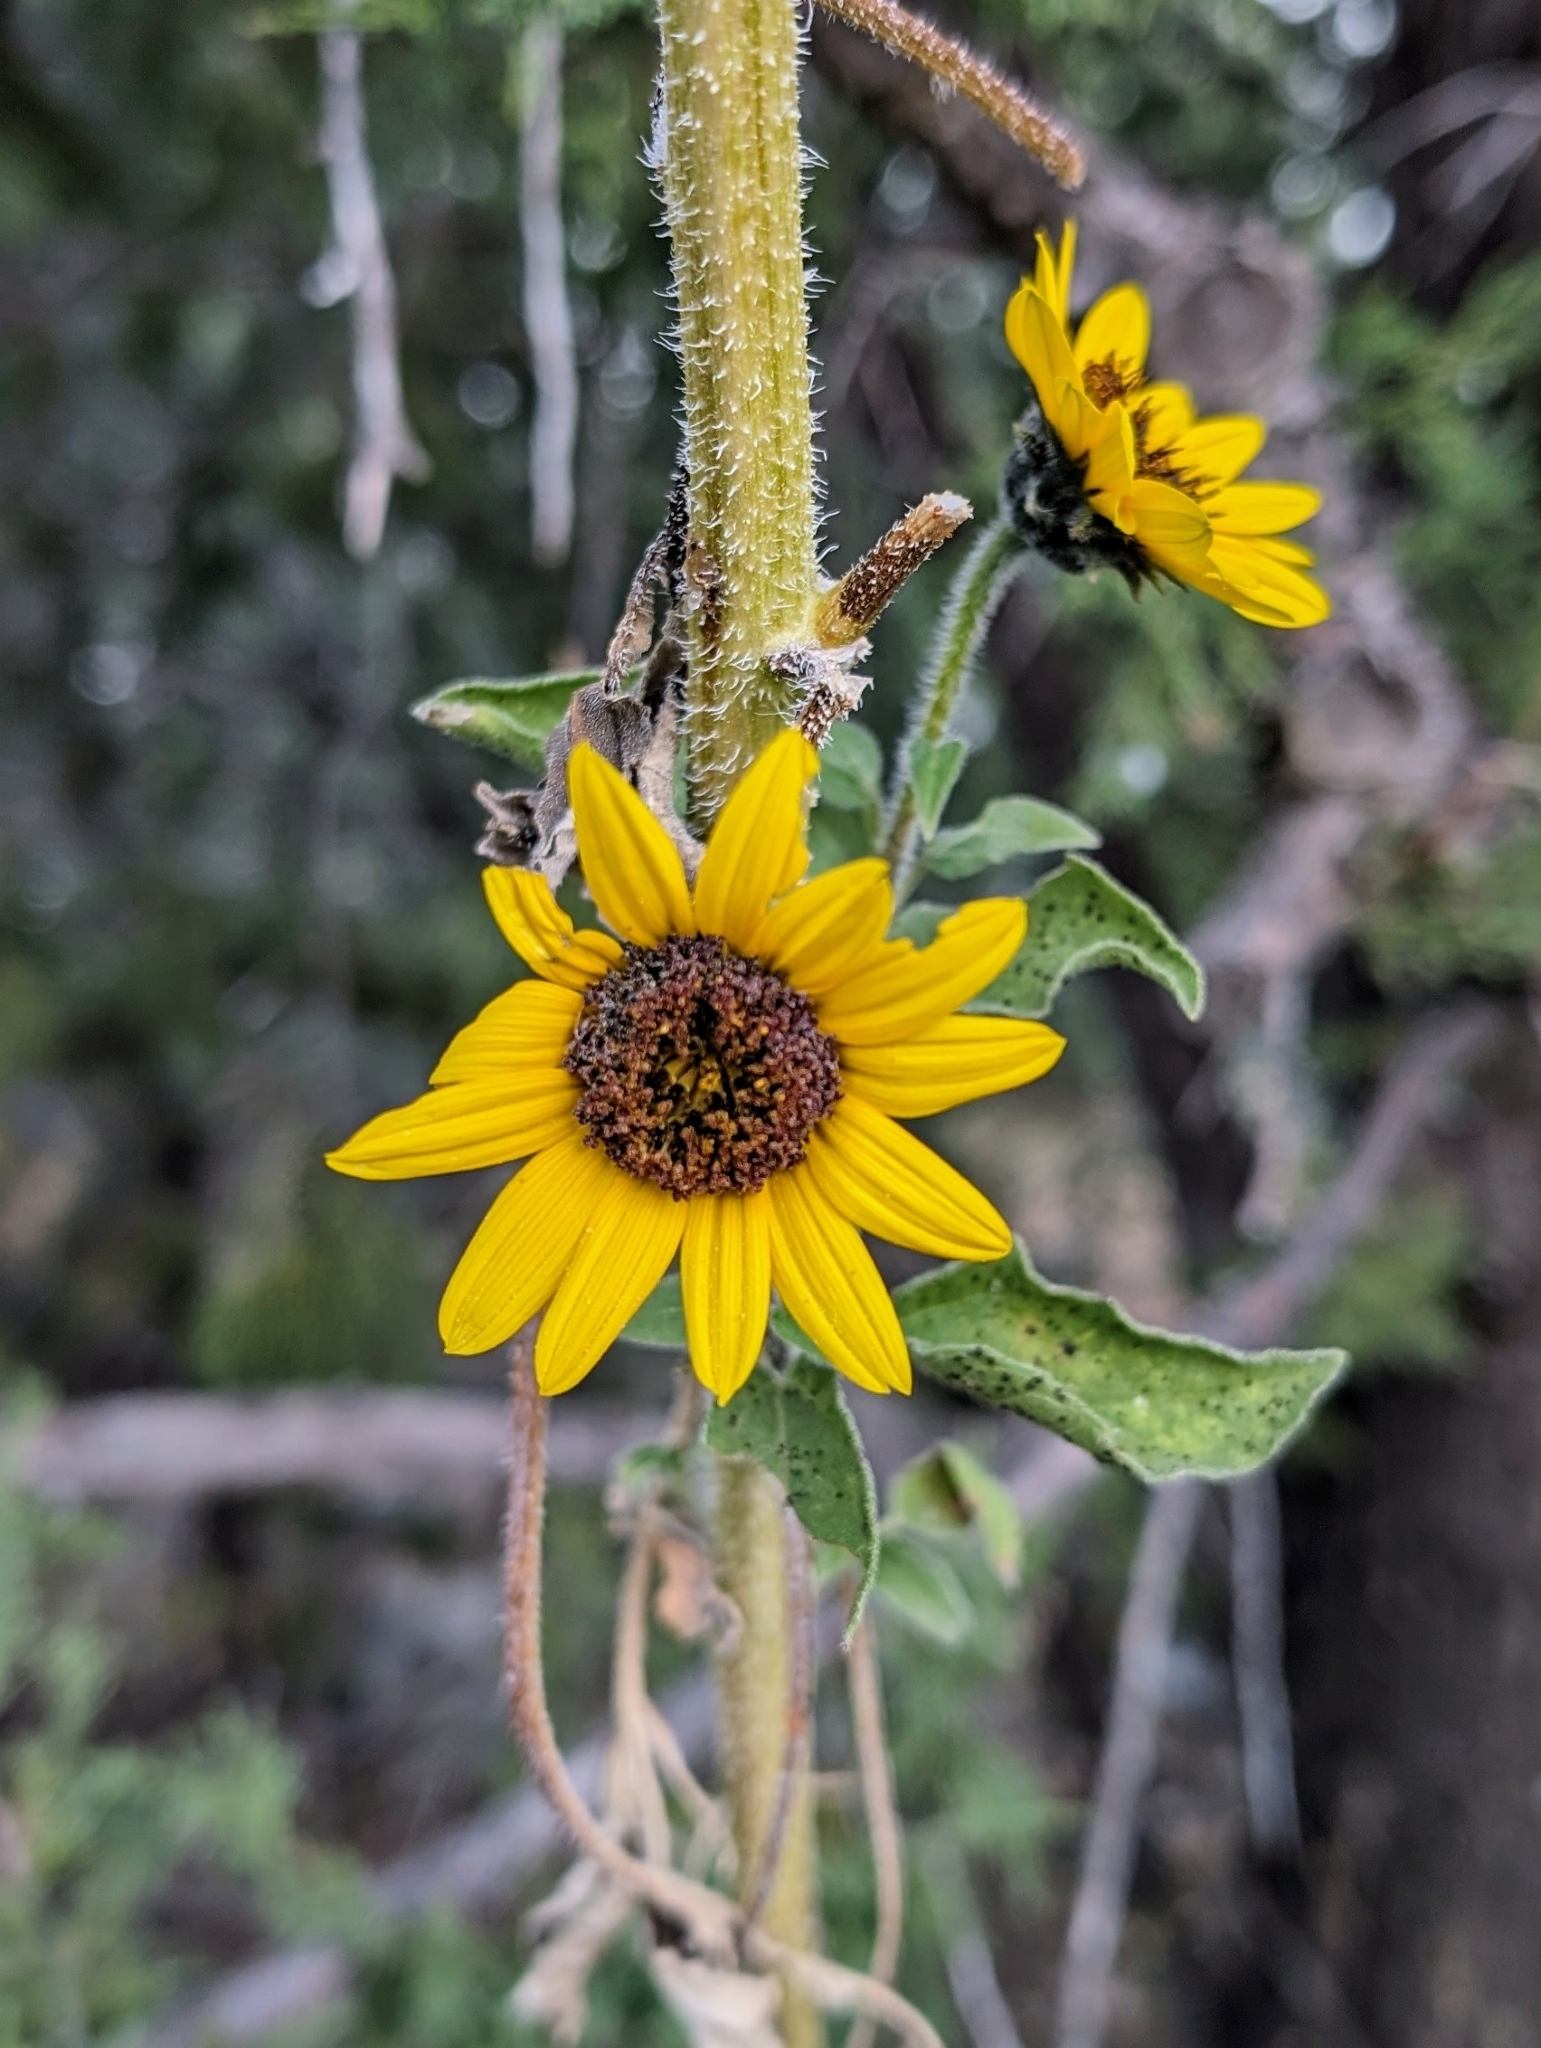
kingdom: Plantae
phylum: Tracheophyta
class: Magnoliopsida
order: Asterales
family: Asteraceae
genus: Helianthus
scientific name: Helianthus annuus
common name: Sunflower
